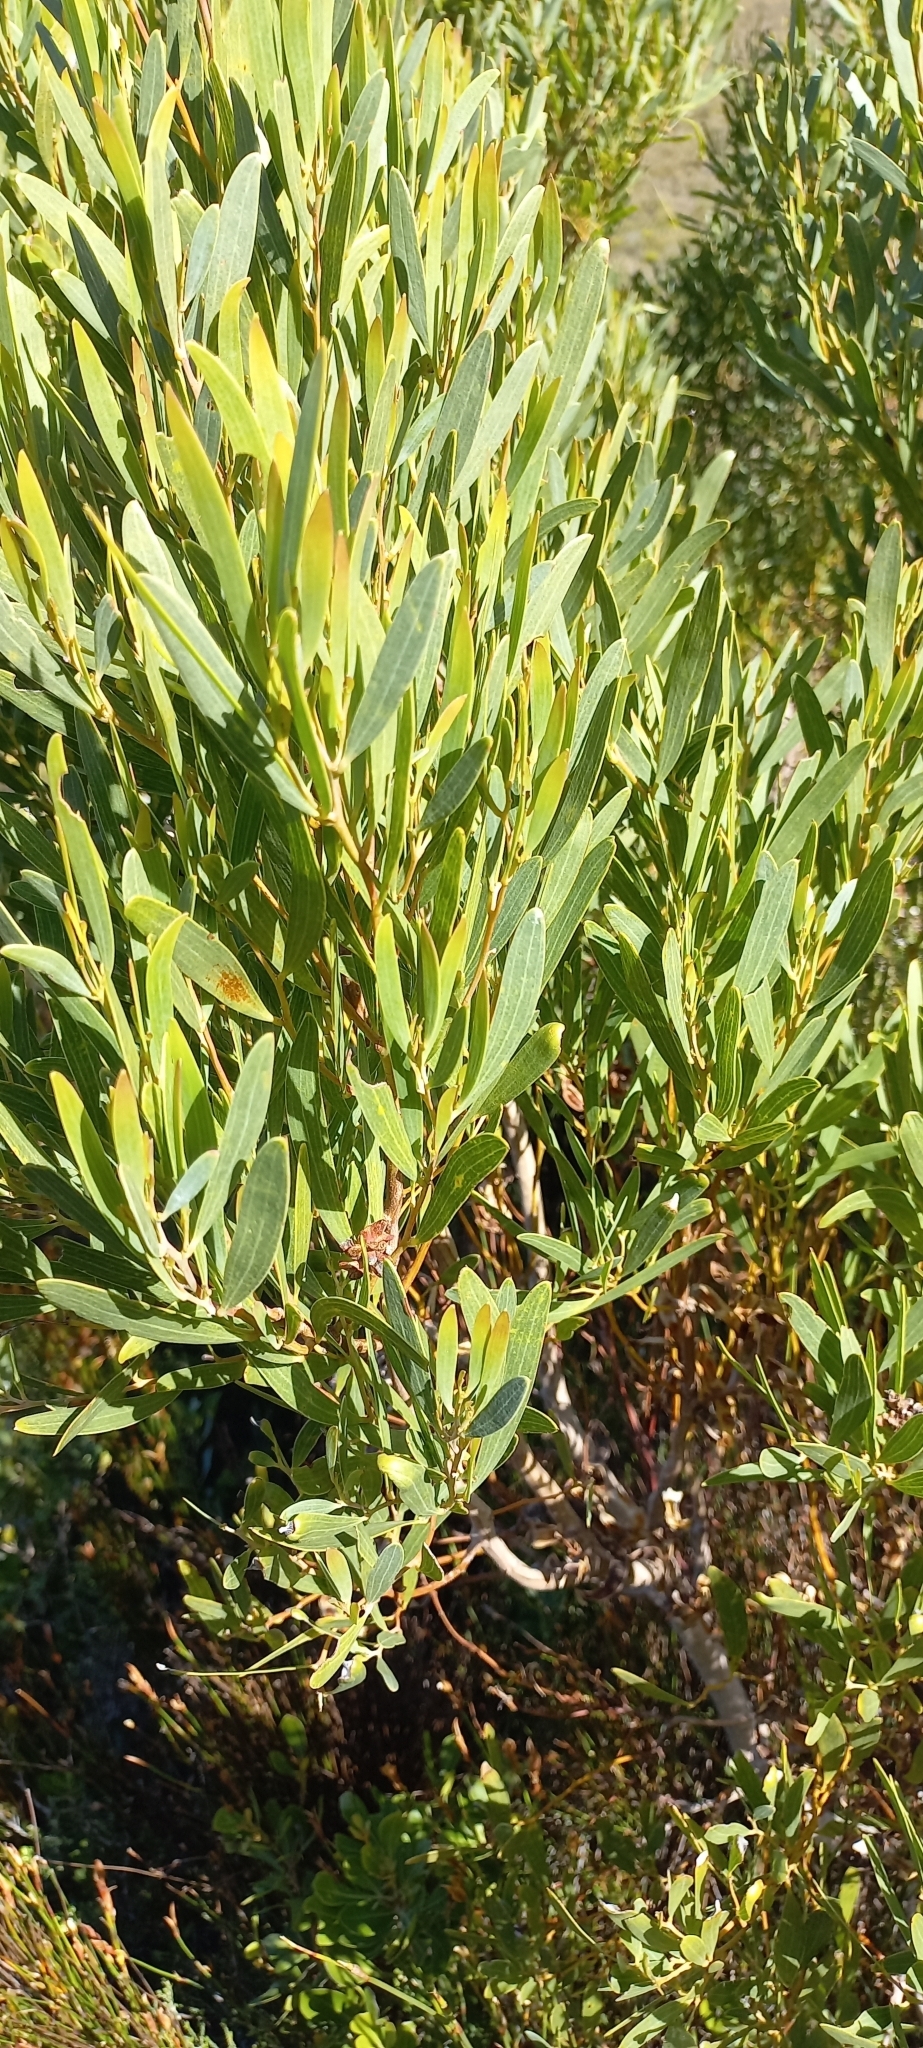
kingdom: Plantae
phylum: Tracheophyta
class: Magnoliopsida
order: Fabales
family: Fabaceae
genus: Acacia
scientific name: Acacia cyclops
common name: Coastal wattle
